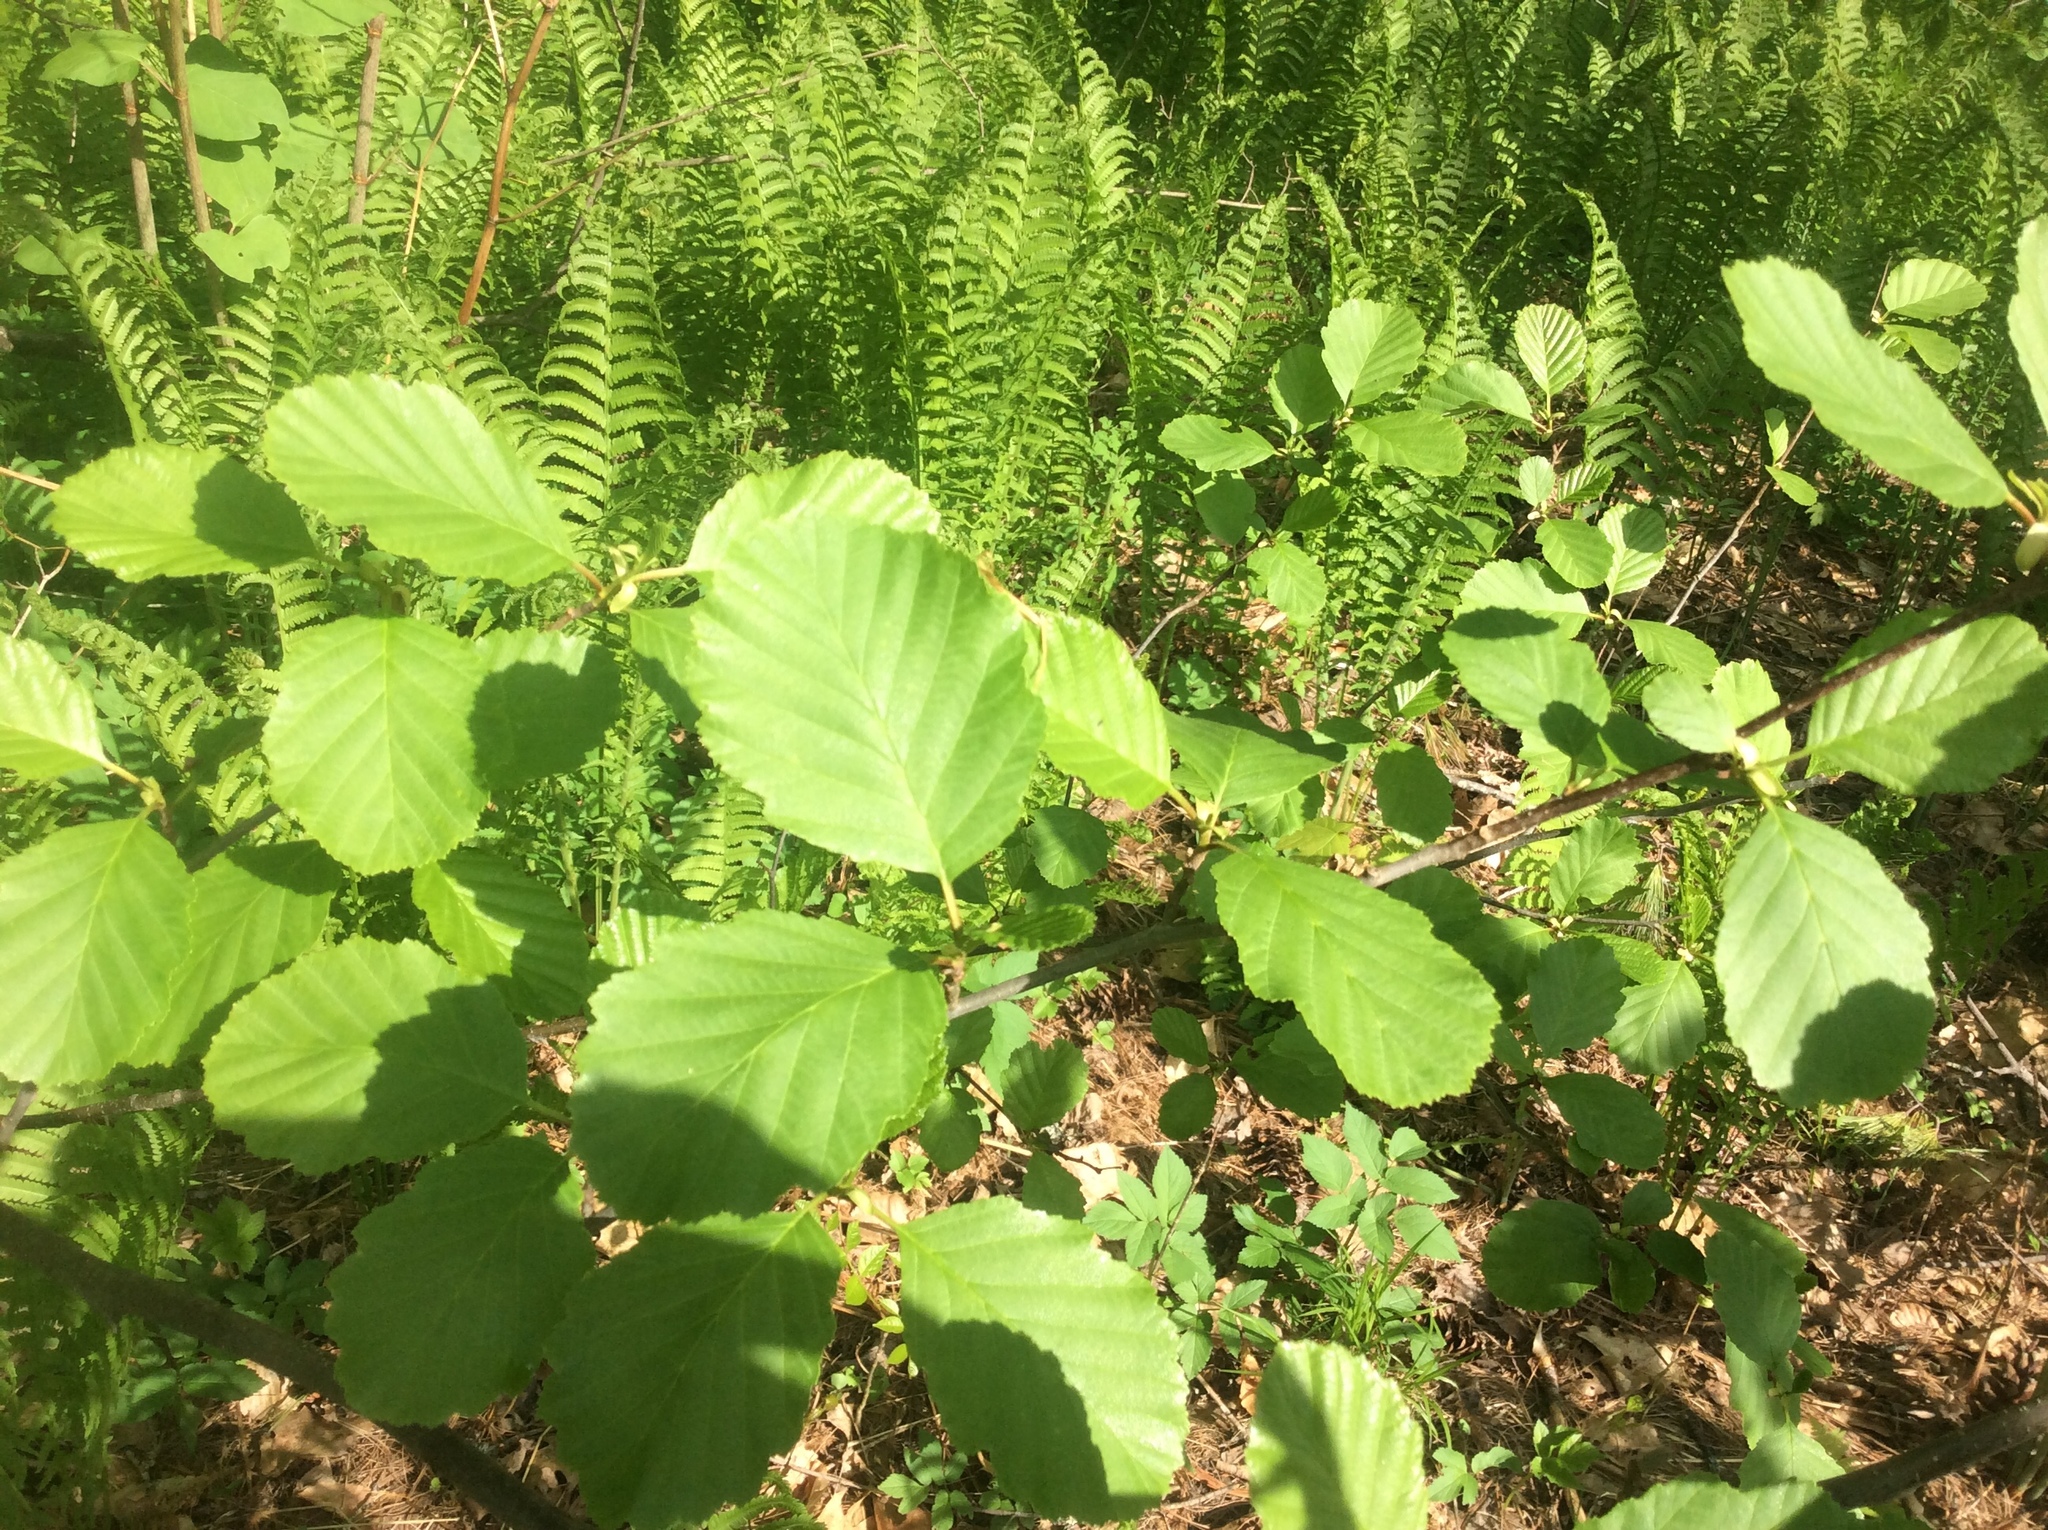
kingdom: Plantae
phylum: Tracheophyta
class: Magnoliopsida
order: Fagales
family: Betulaceae
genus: Alnus
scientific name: Alnus glutinosa
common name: Black alder
